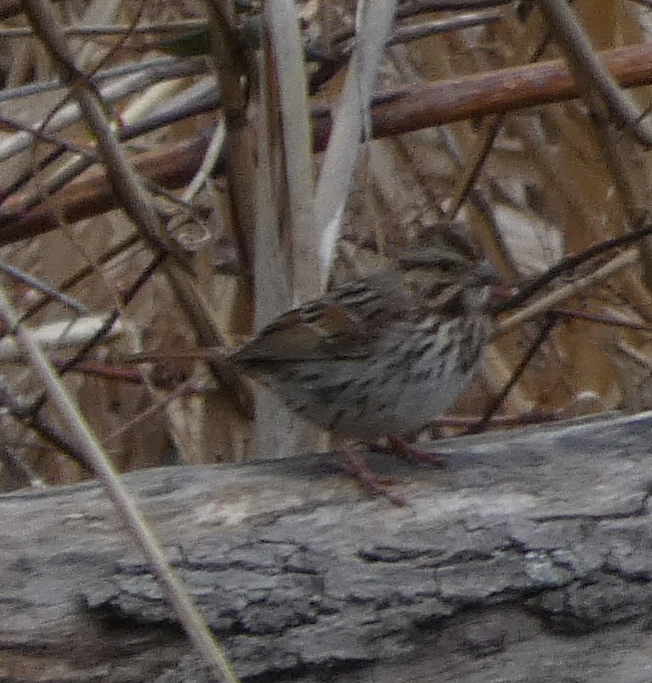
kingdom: Animalia
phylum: Chordata
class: Aves
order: Passeriformes
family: Passerellidae
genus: Melospiza
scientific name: Melospiza melodia
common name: Song sparrow
